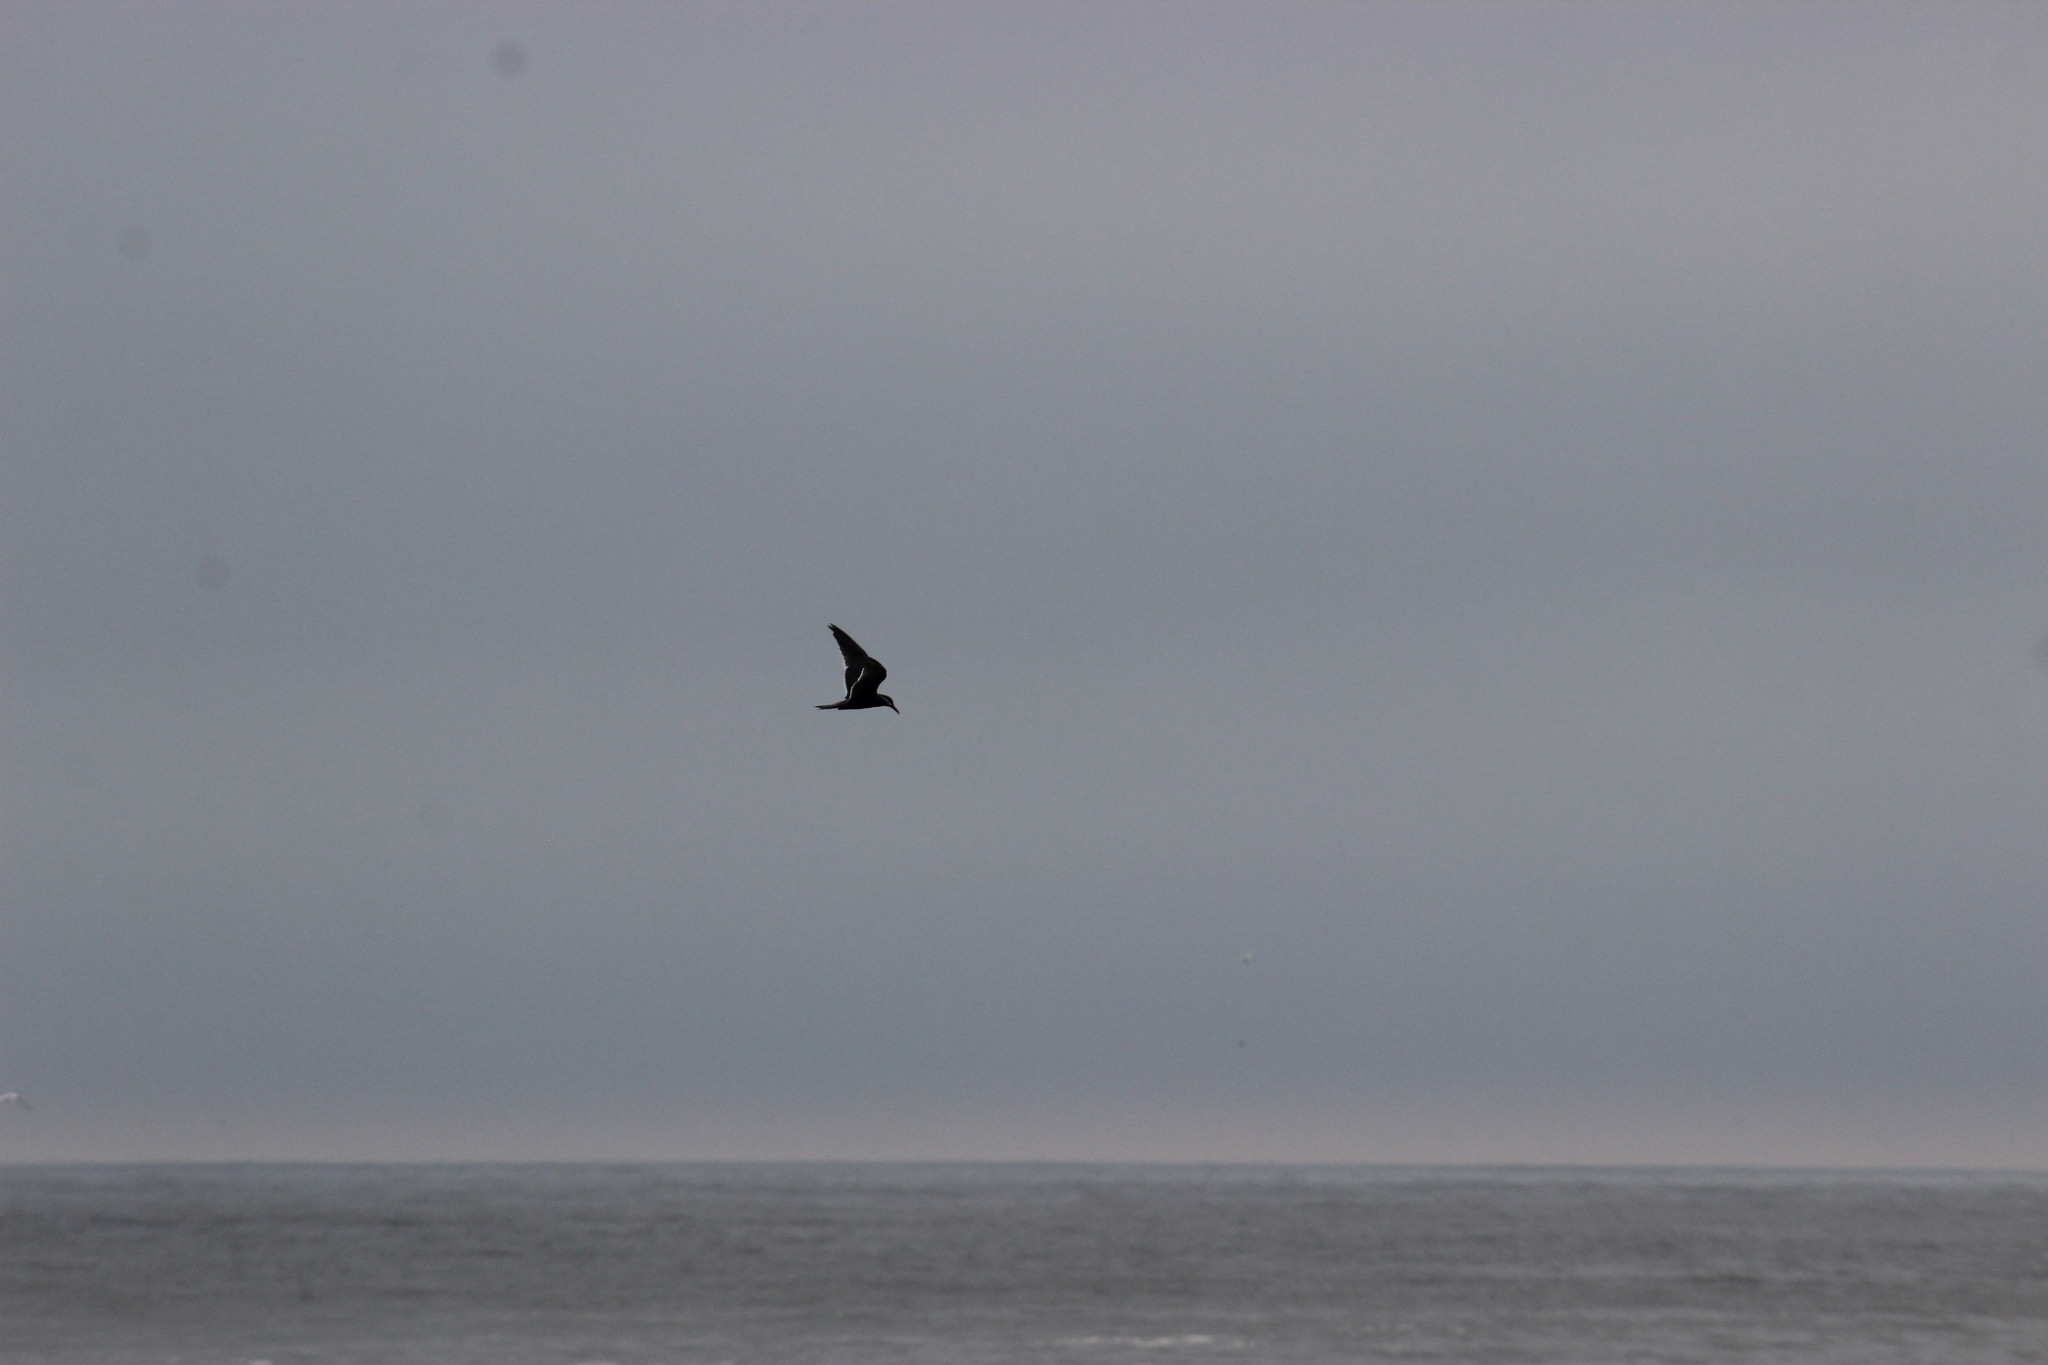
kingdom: Animalia
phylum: Chordata
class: Aves
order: Charadriiformes
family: Laridae
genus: Larosterna
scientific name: Larosterna inca
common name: Inca tern
